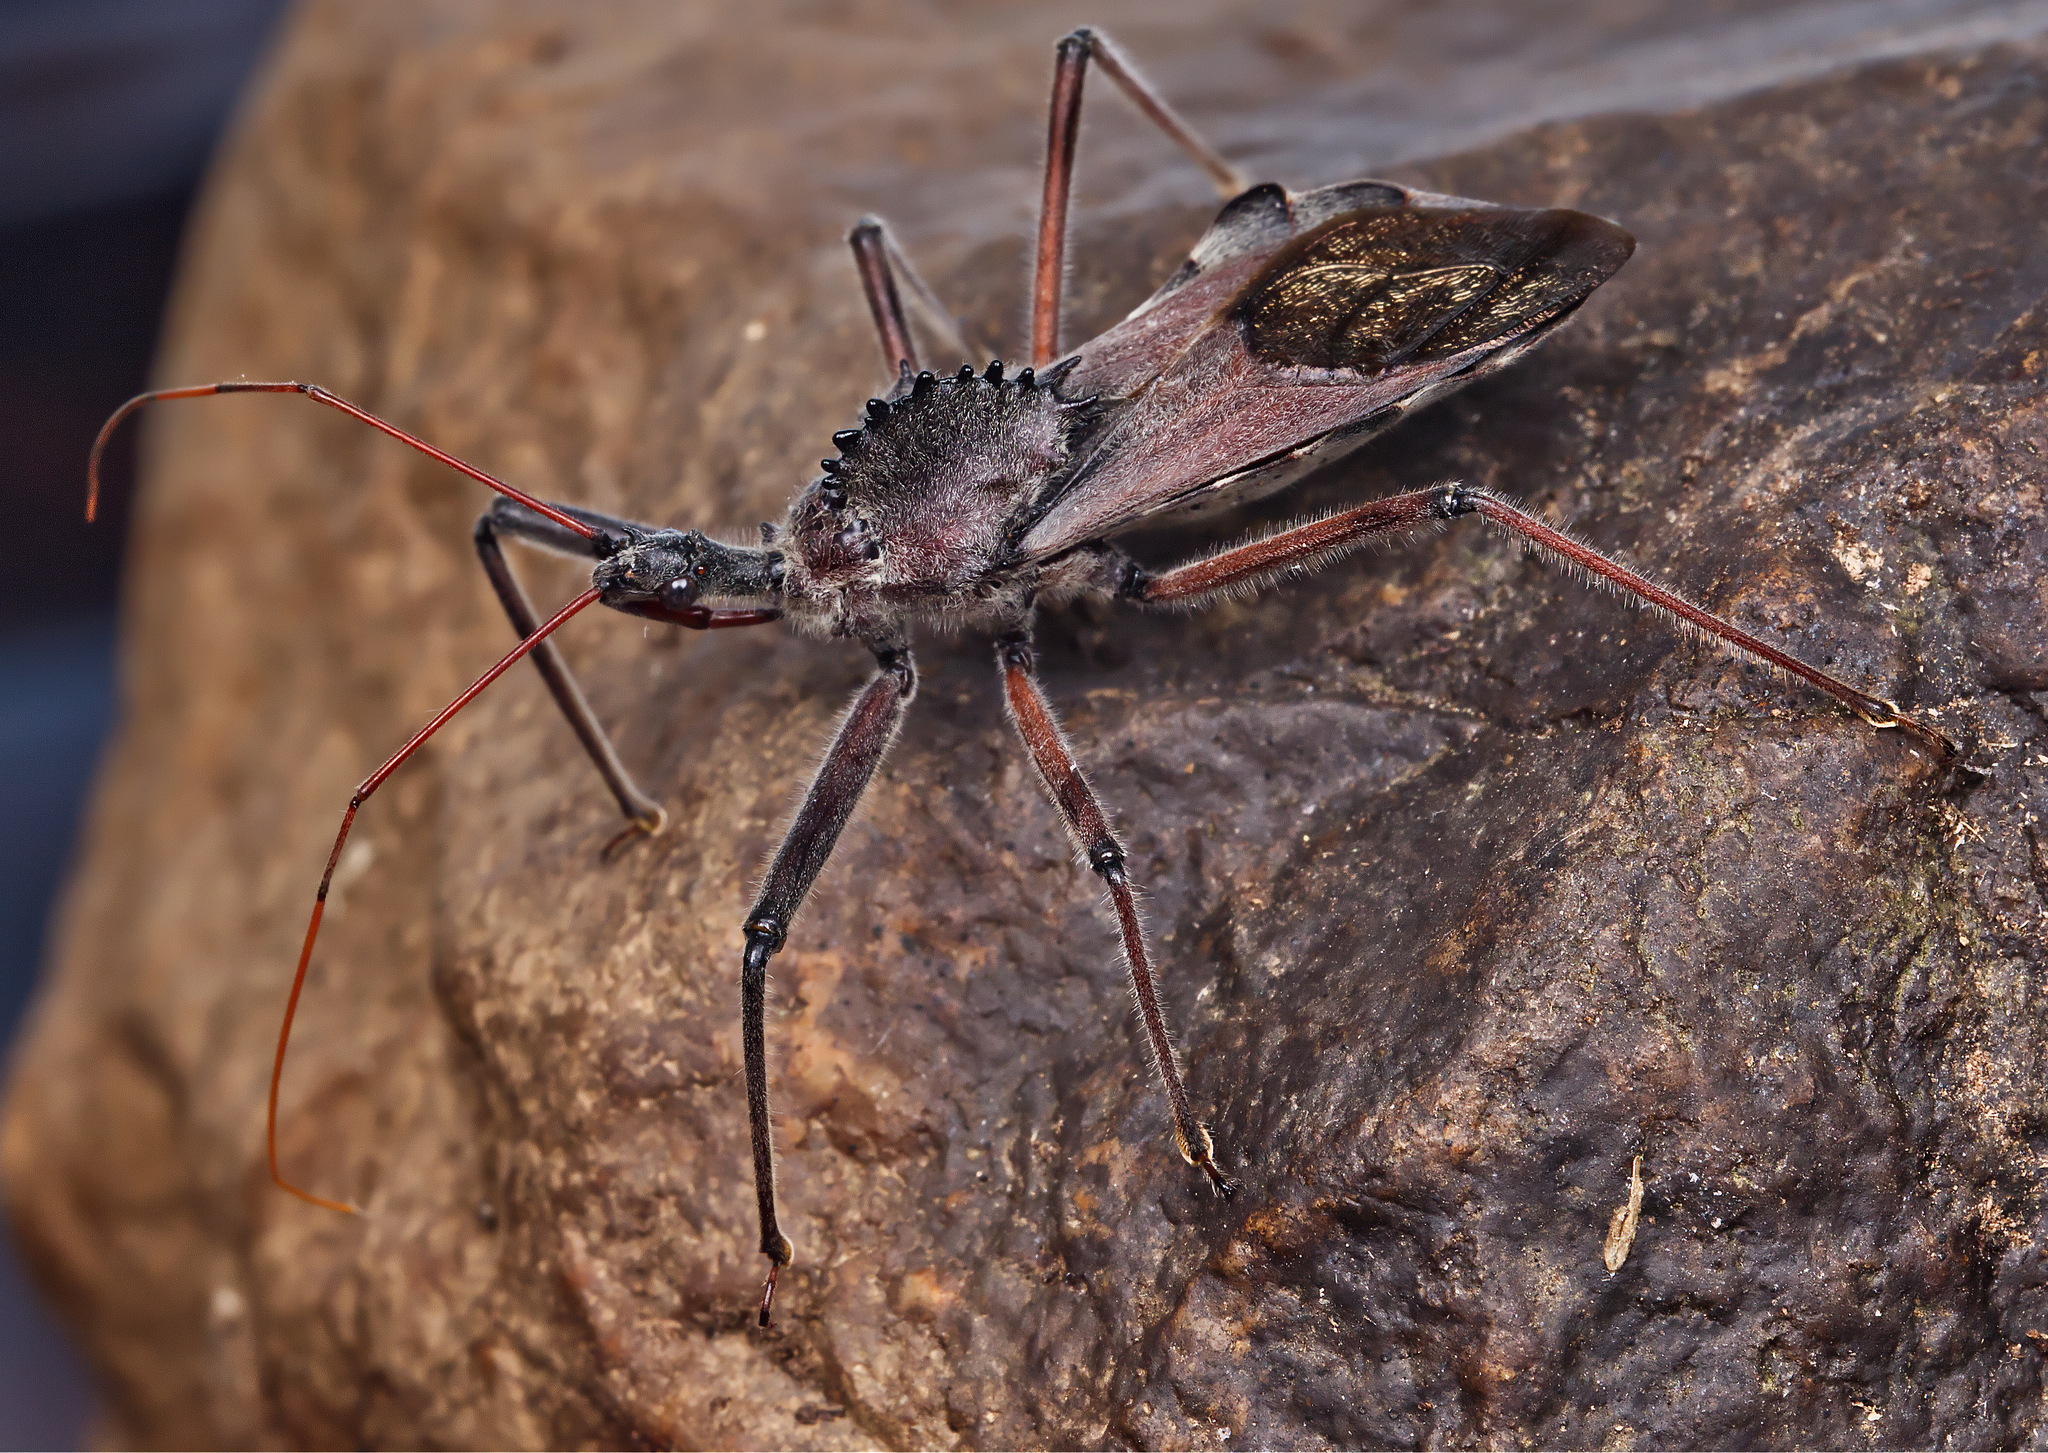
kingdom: Animalia
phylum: Arthropoda
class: Insecta
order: Hemiptera
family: Reduviidae
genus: Arilus
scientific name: Arilus cristatus
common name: North american wheel bug
